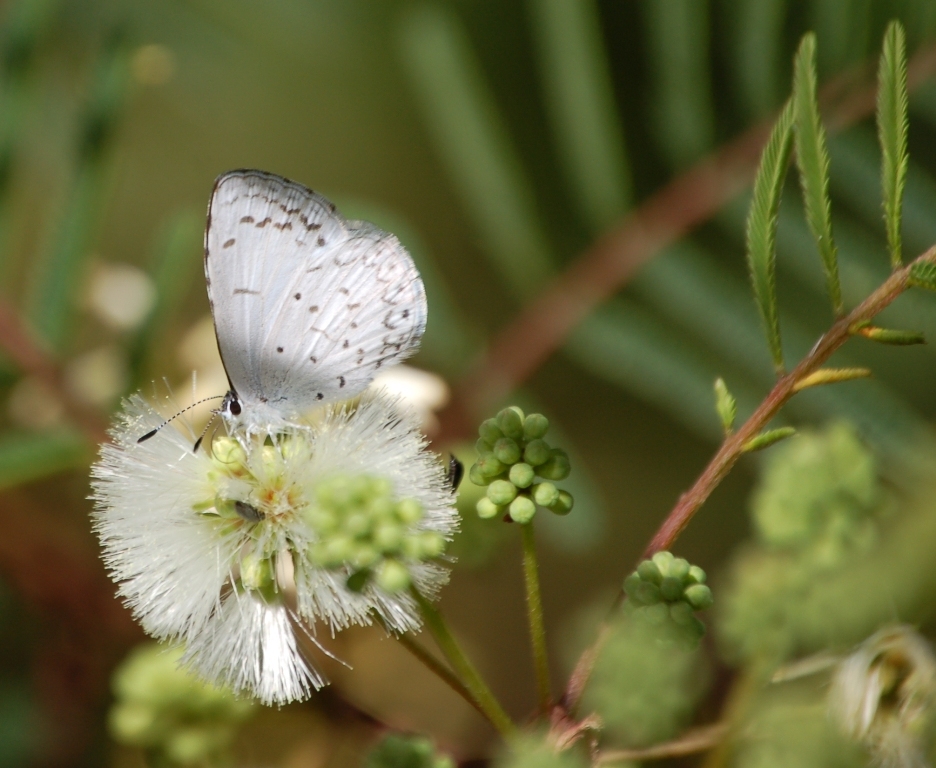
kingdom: Animalia
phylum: Arthropoda
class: Insecta
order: Lepidoptera
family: Lycaenidae
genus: Celastrina
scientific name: Celastrina ladon
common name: Spring azure
